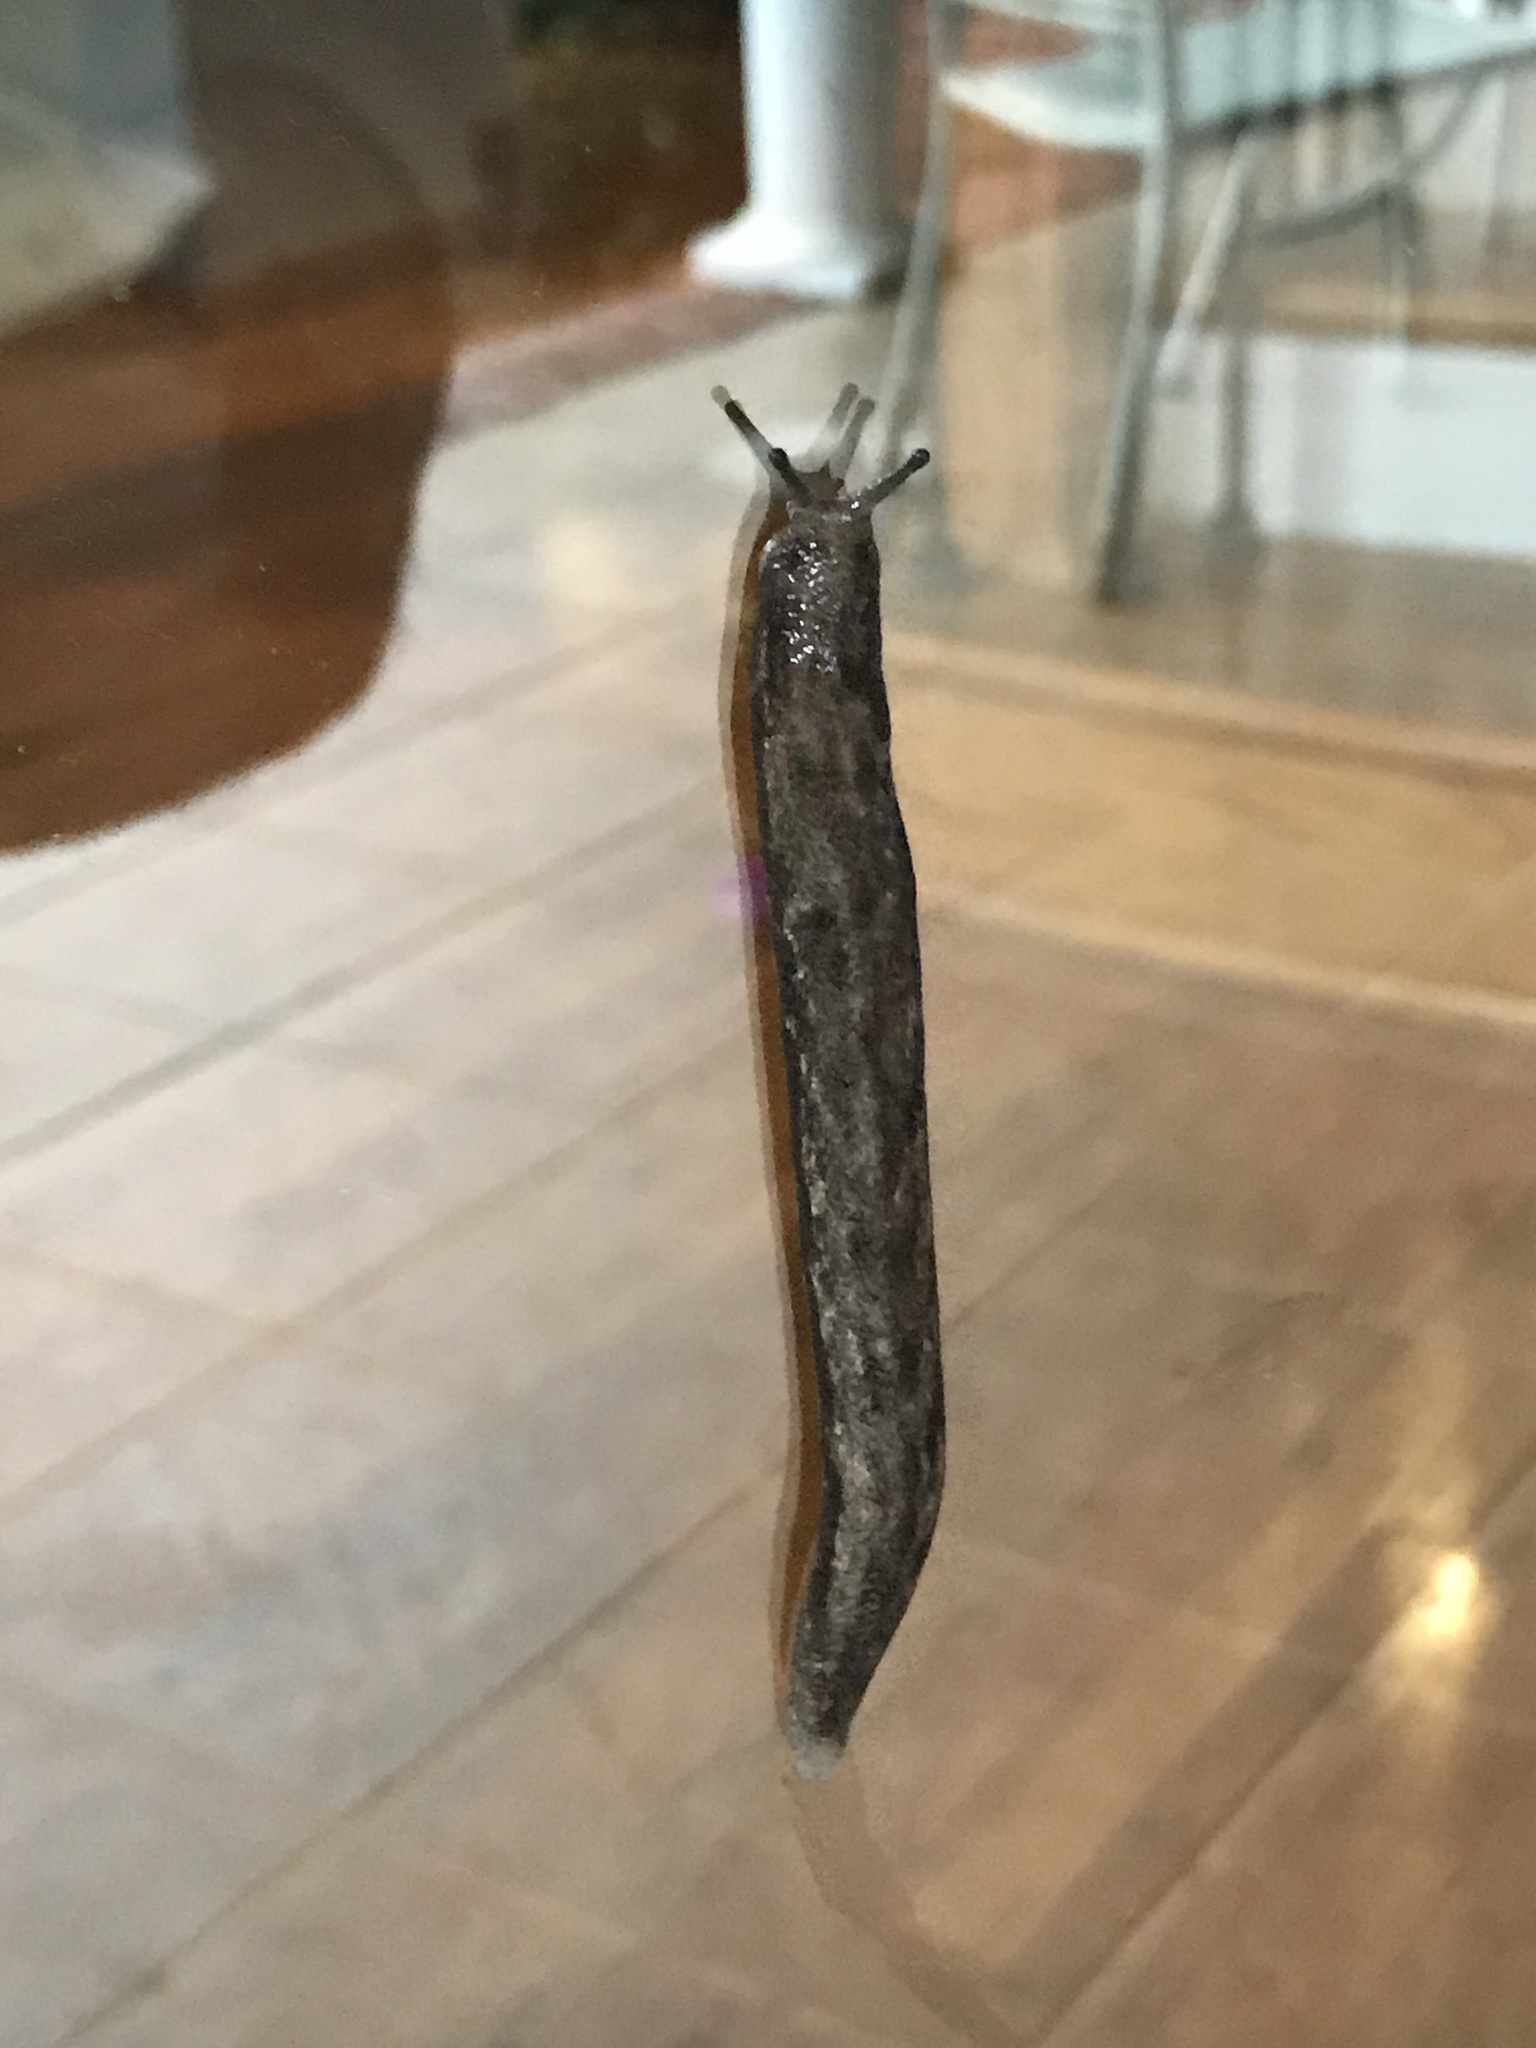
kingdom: Animalia
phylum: Mollusca
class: Gastropoda
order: Stylommatophora
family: Philomycidae
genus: Megapallifera
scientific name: Megapallifera mutabilis
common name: Changeable mantleslug
